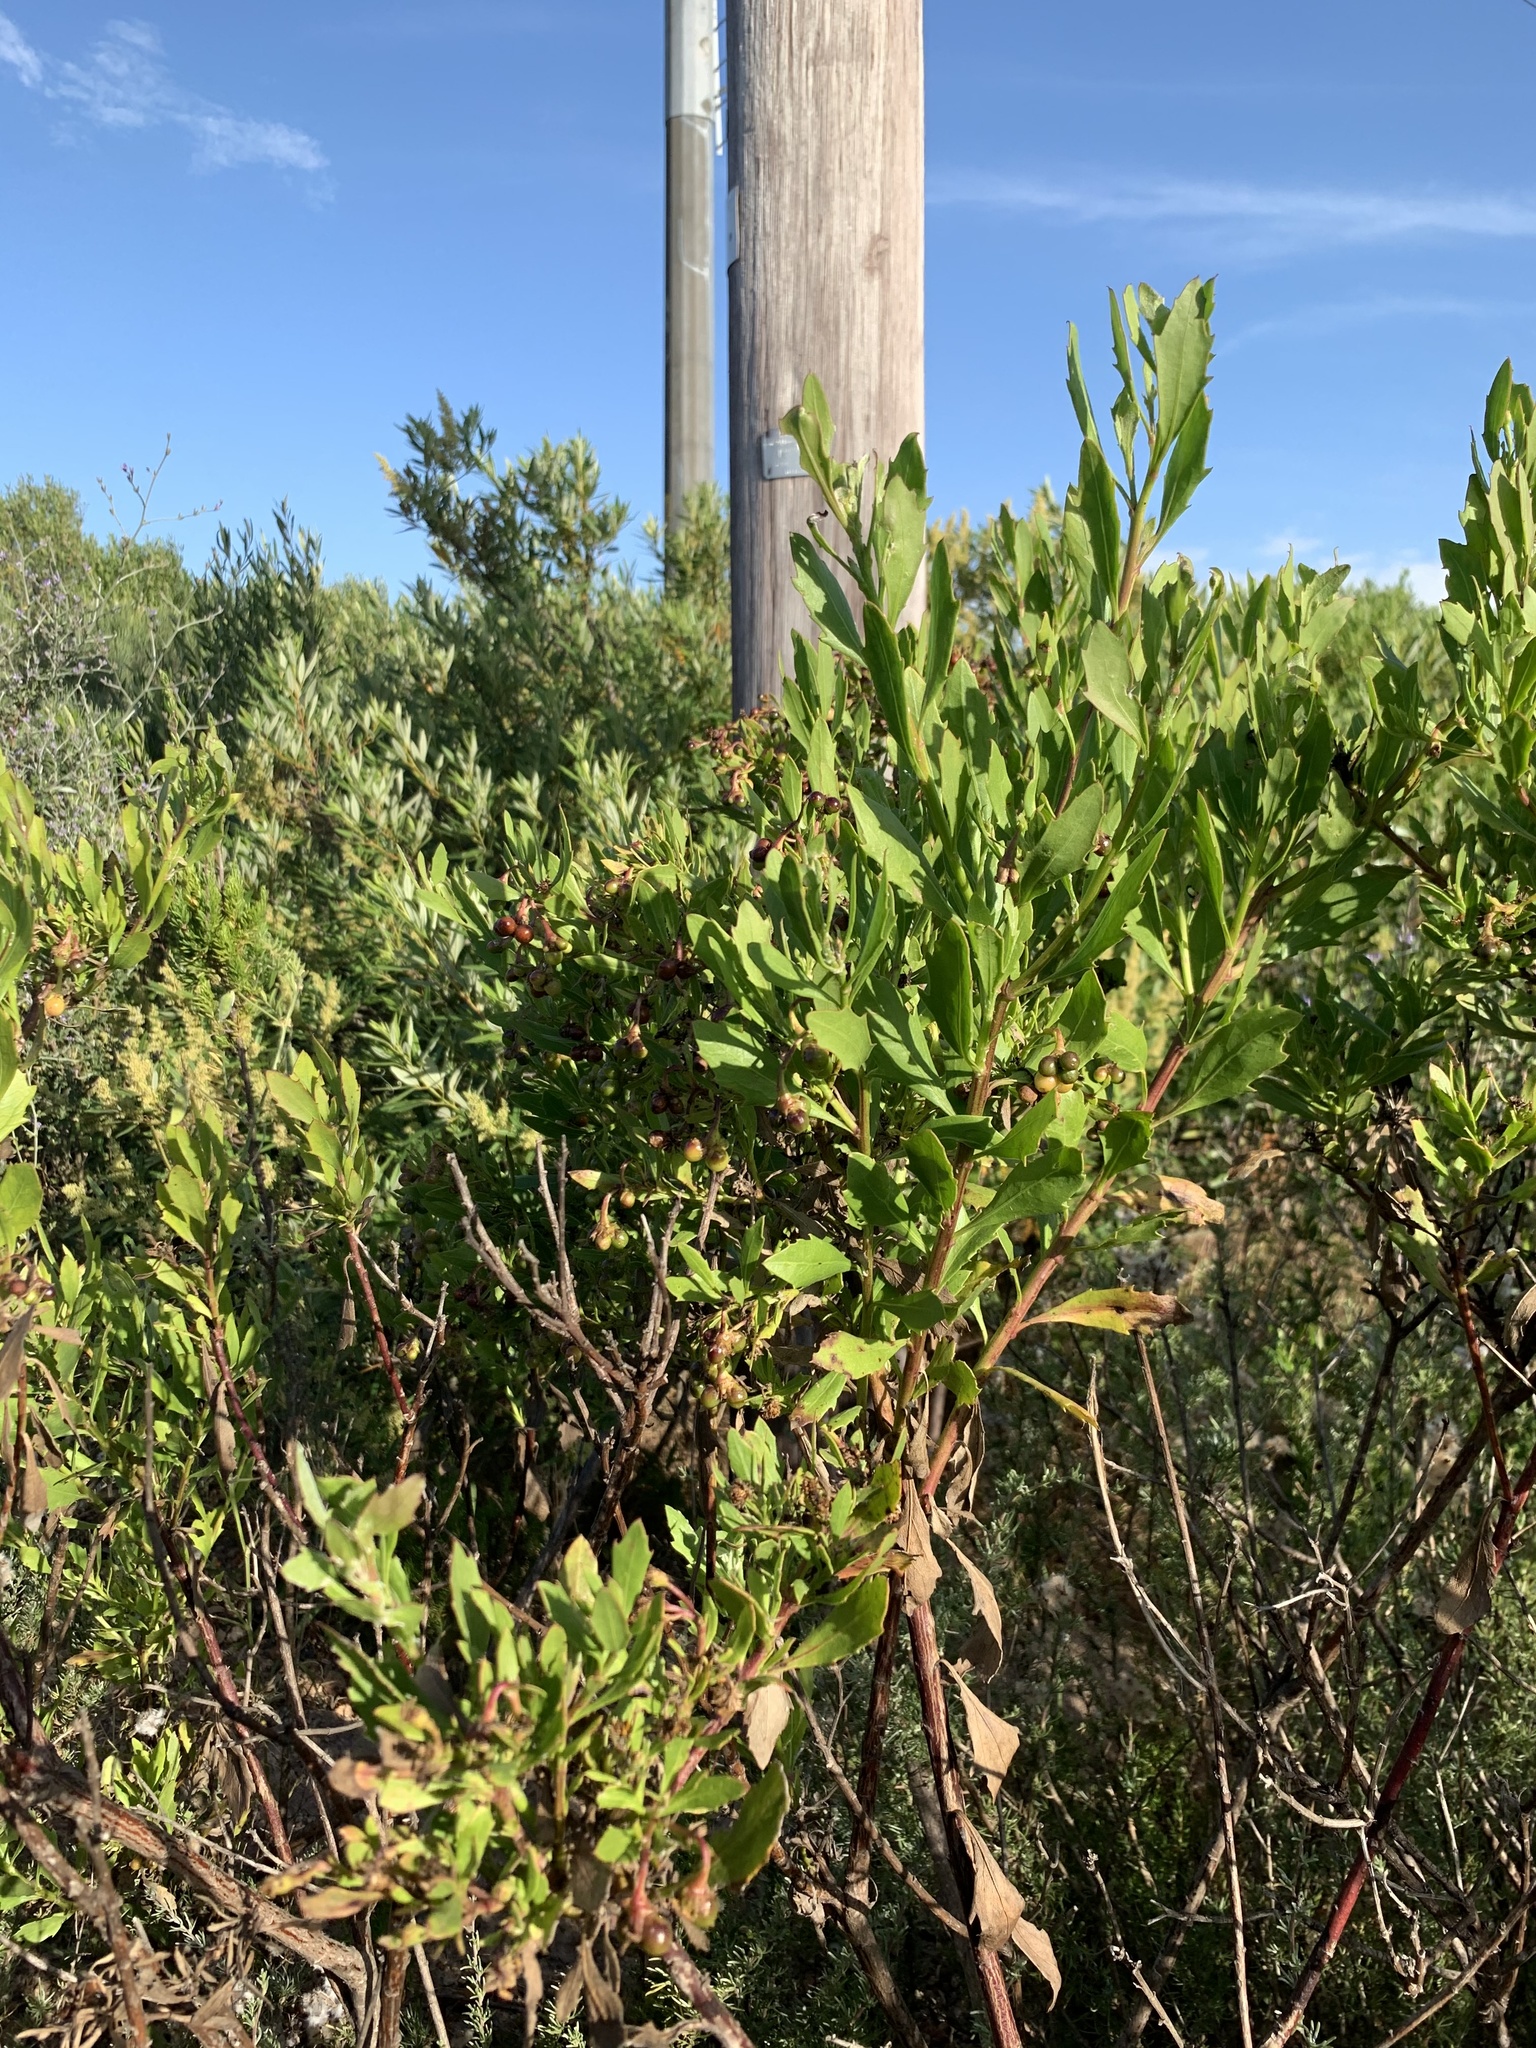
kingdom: Plantae
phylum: Tracheophyta
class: Magnoliopsida
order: Asterales
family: Asteraceae
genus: Osteospermum
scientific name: Osteospermum moniliferum
